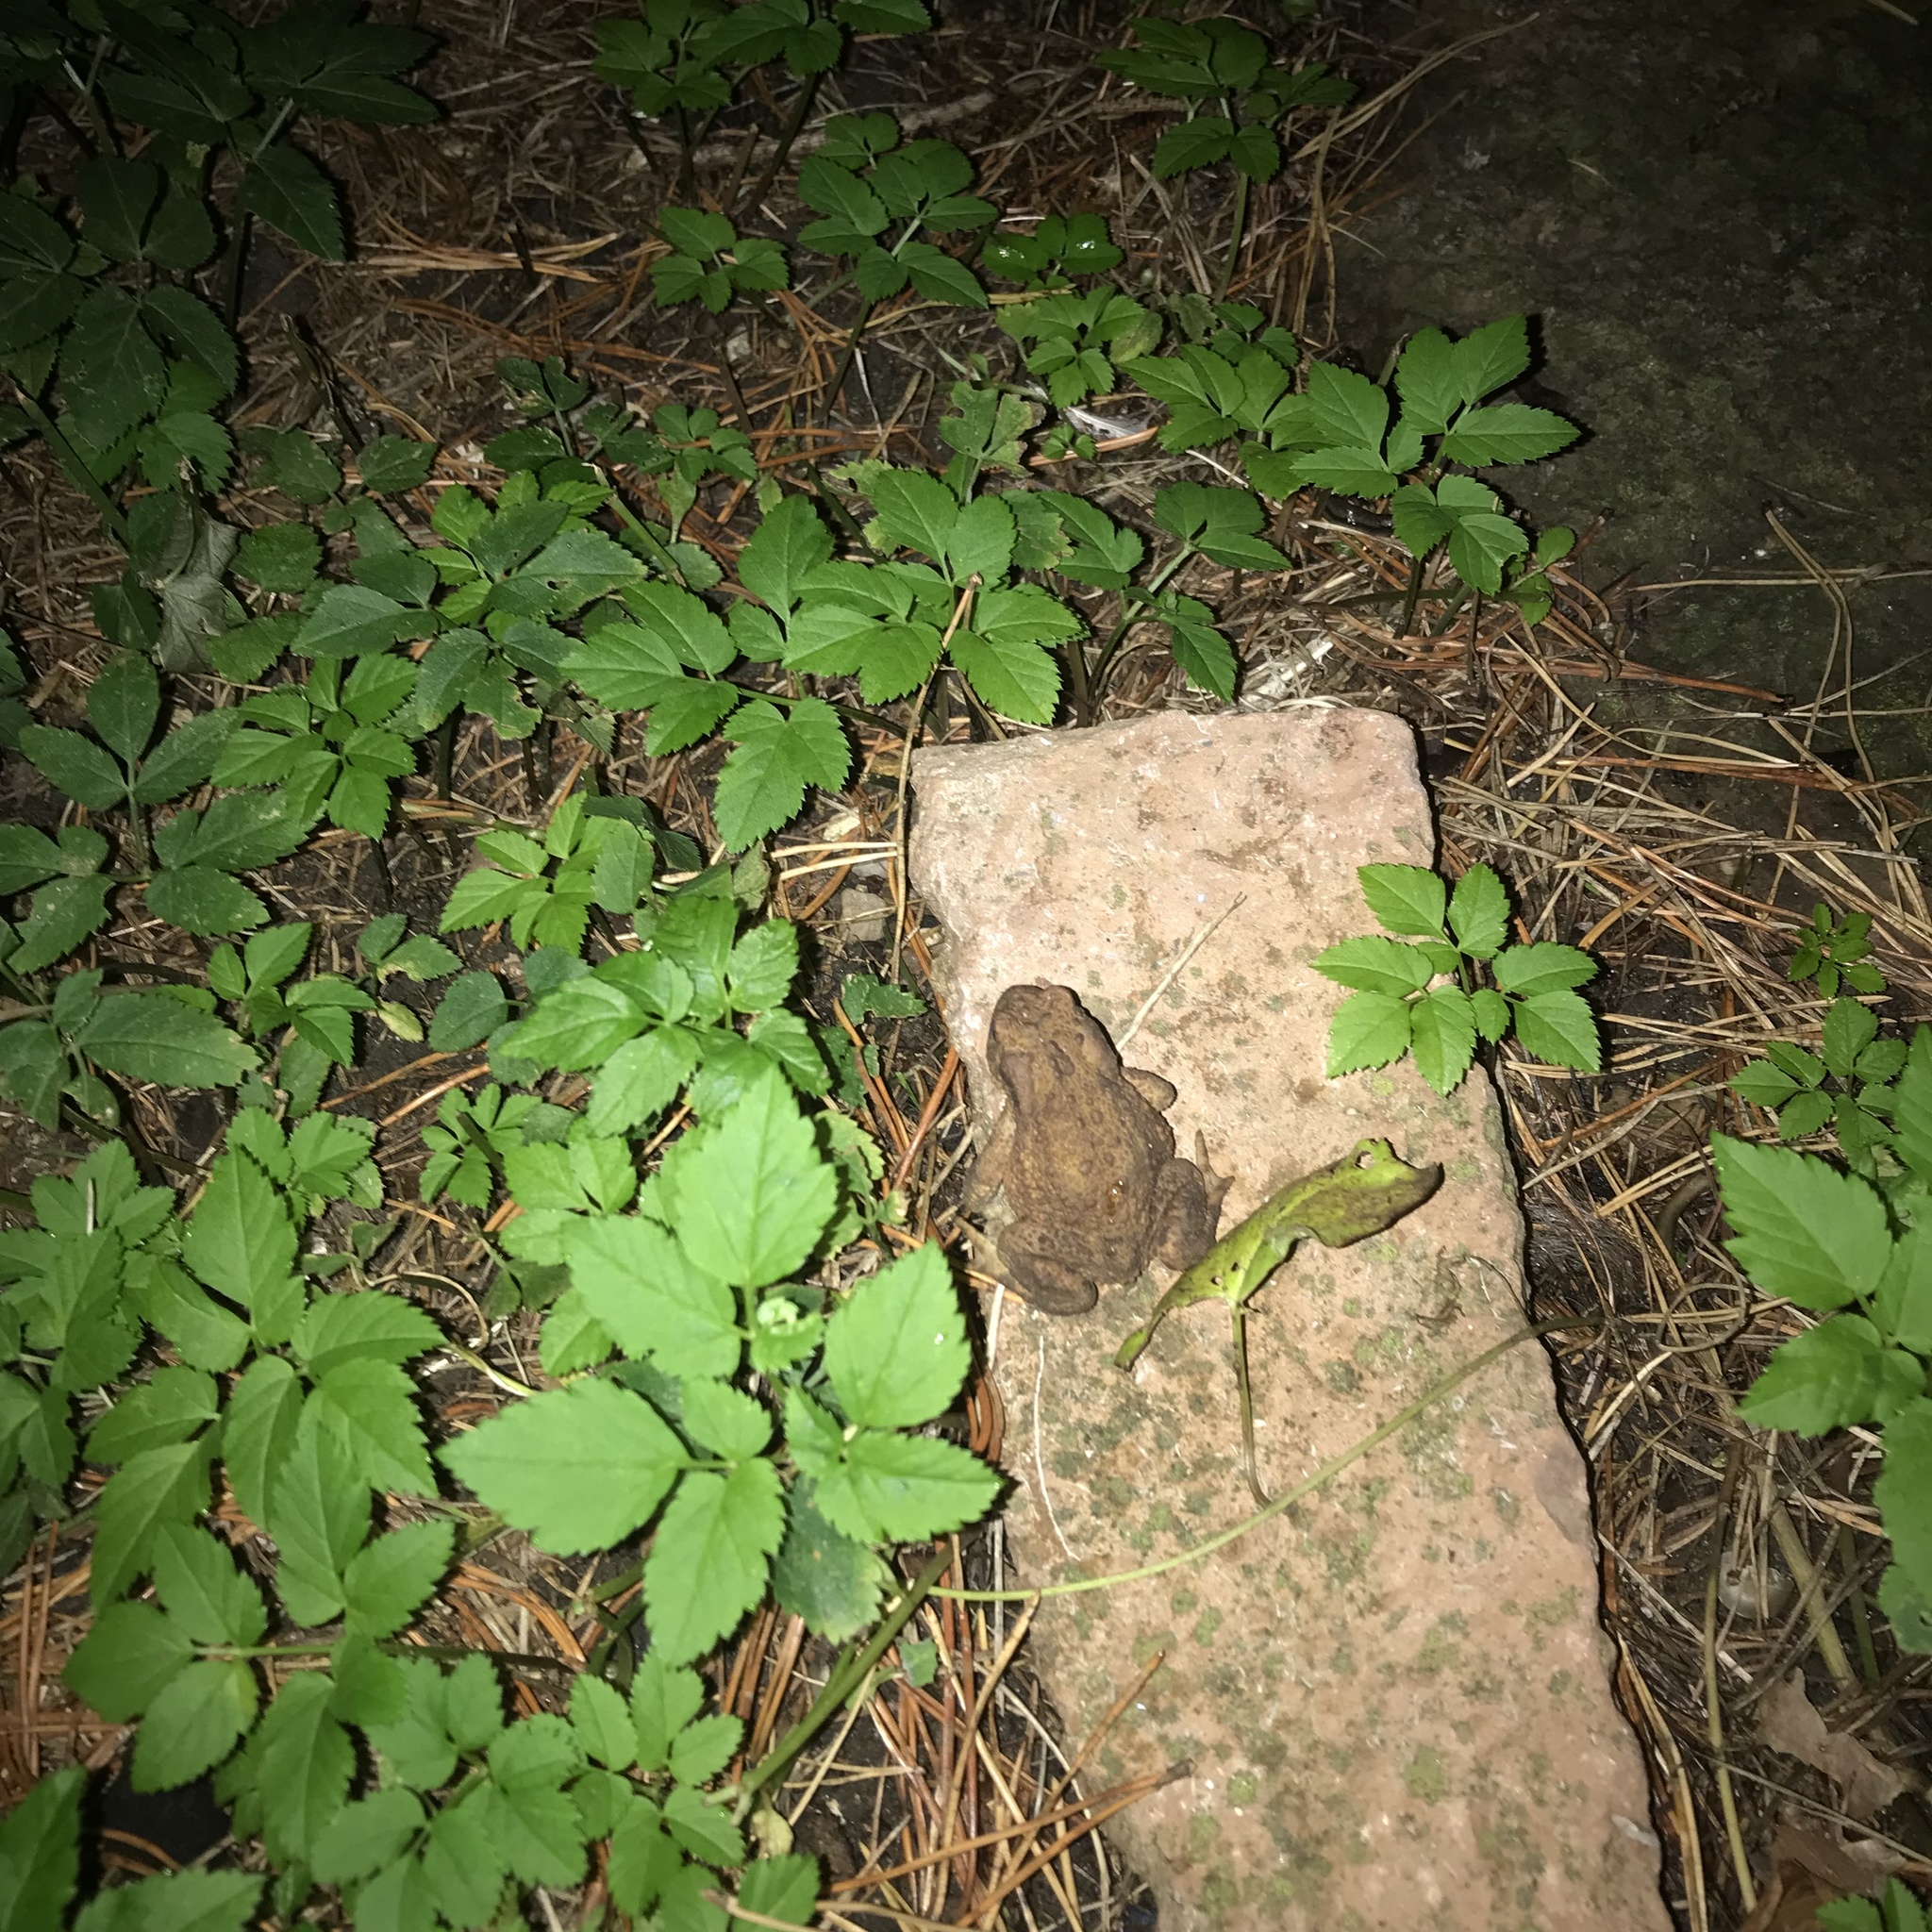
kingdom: Animalia
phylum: Chordata
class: Amphibia
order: Anura
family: Bufonidae
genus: Bufo
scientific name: Bufo bufo
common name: Common toad
